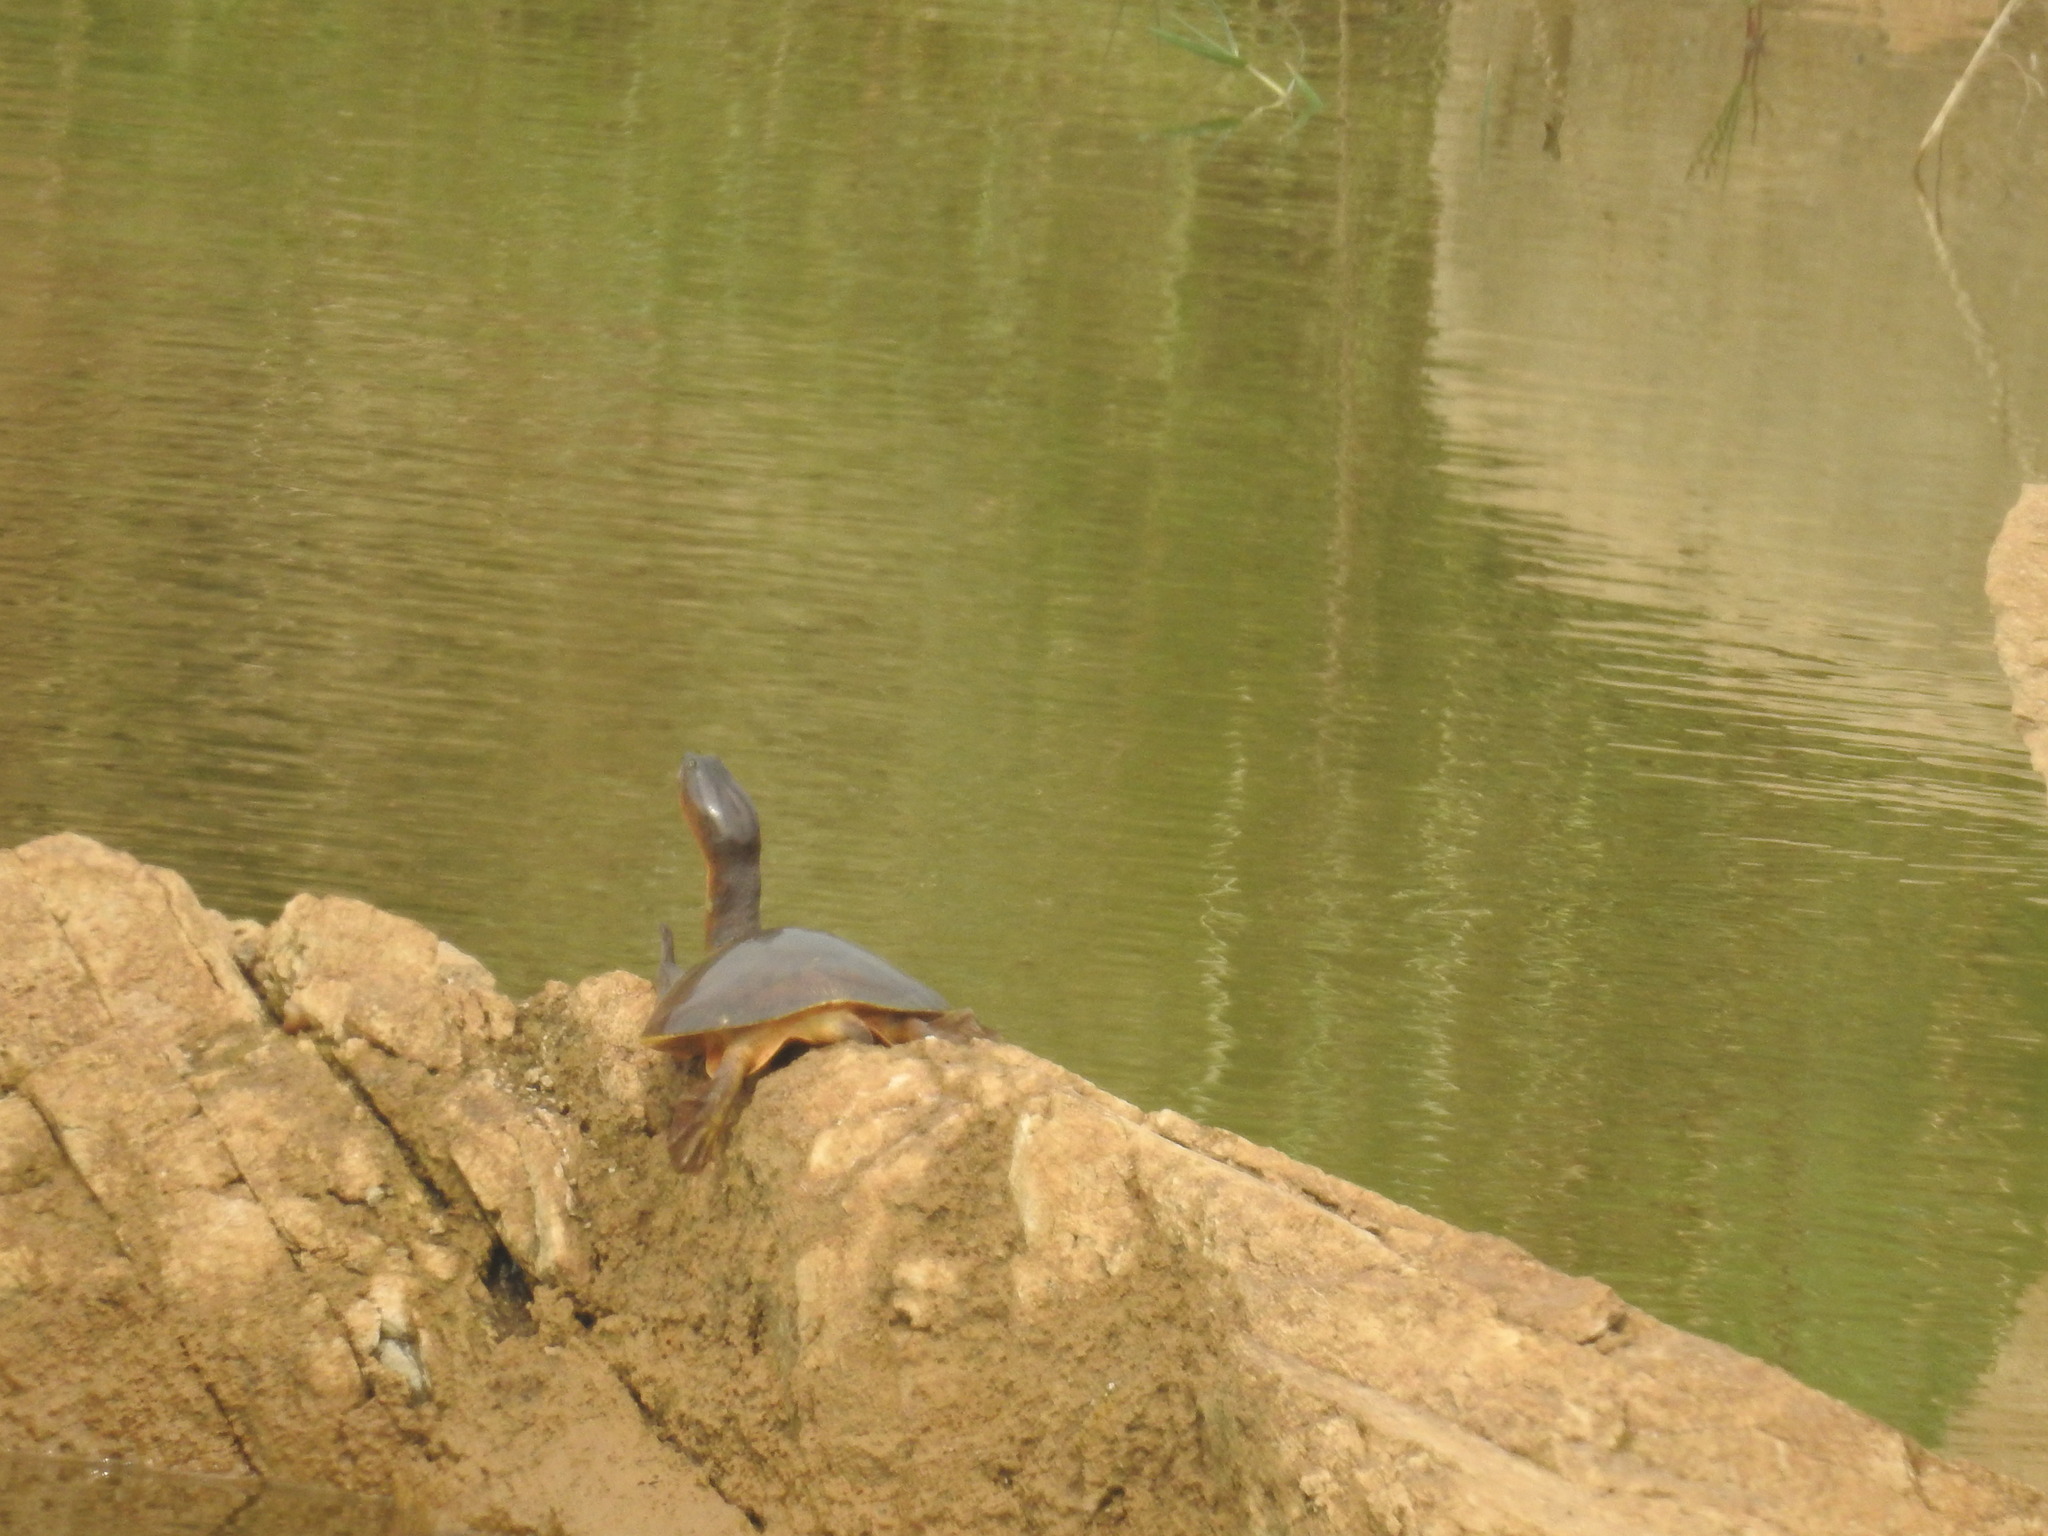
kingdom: Animalia
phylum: Chordata
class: Testudines
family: Trionychidae
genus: Lissemys
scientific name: Lissemys punctata
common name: Indian flap-shelled turtle
